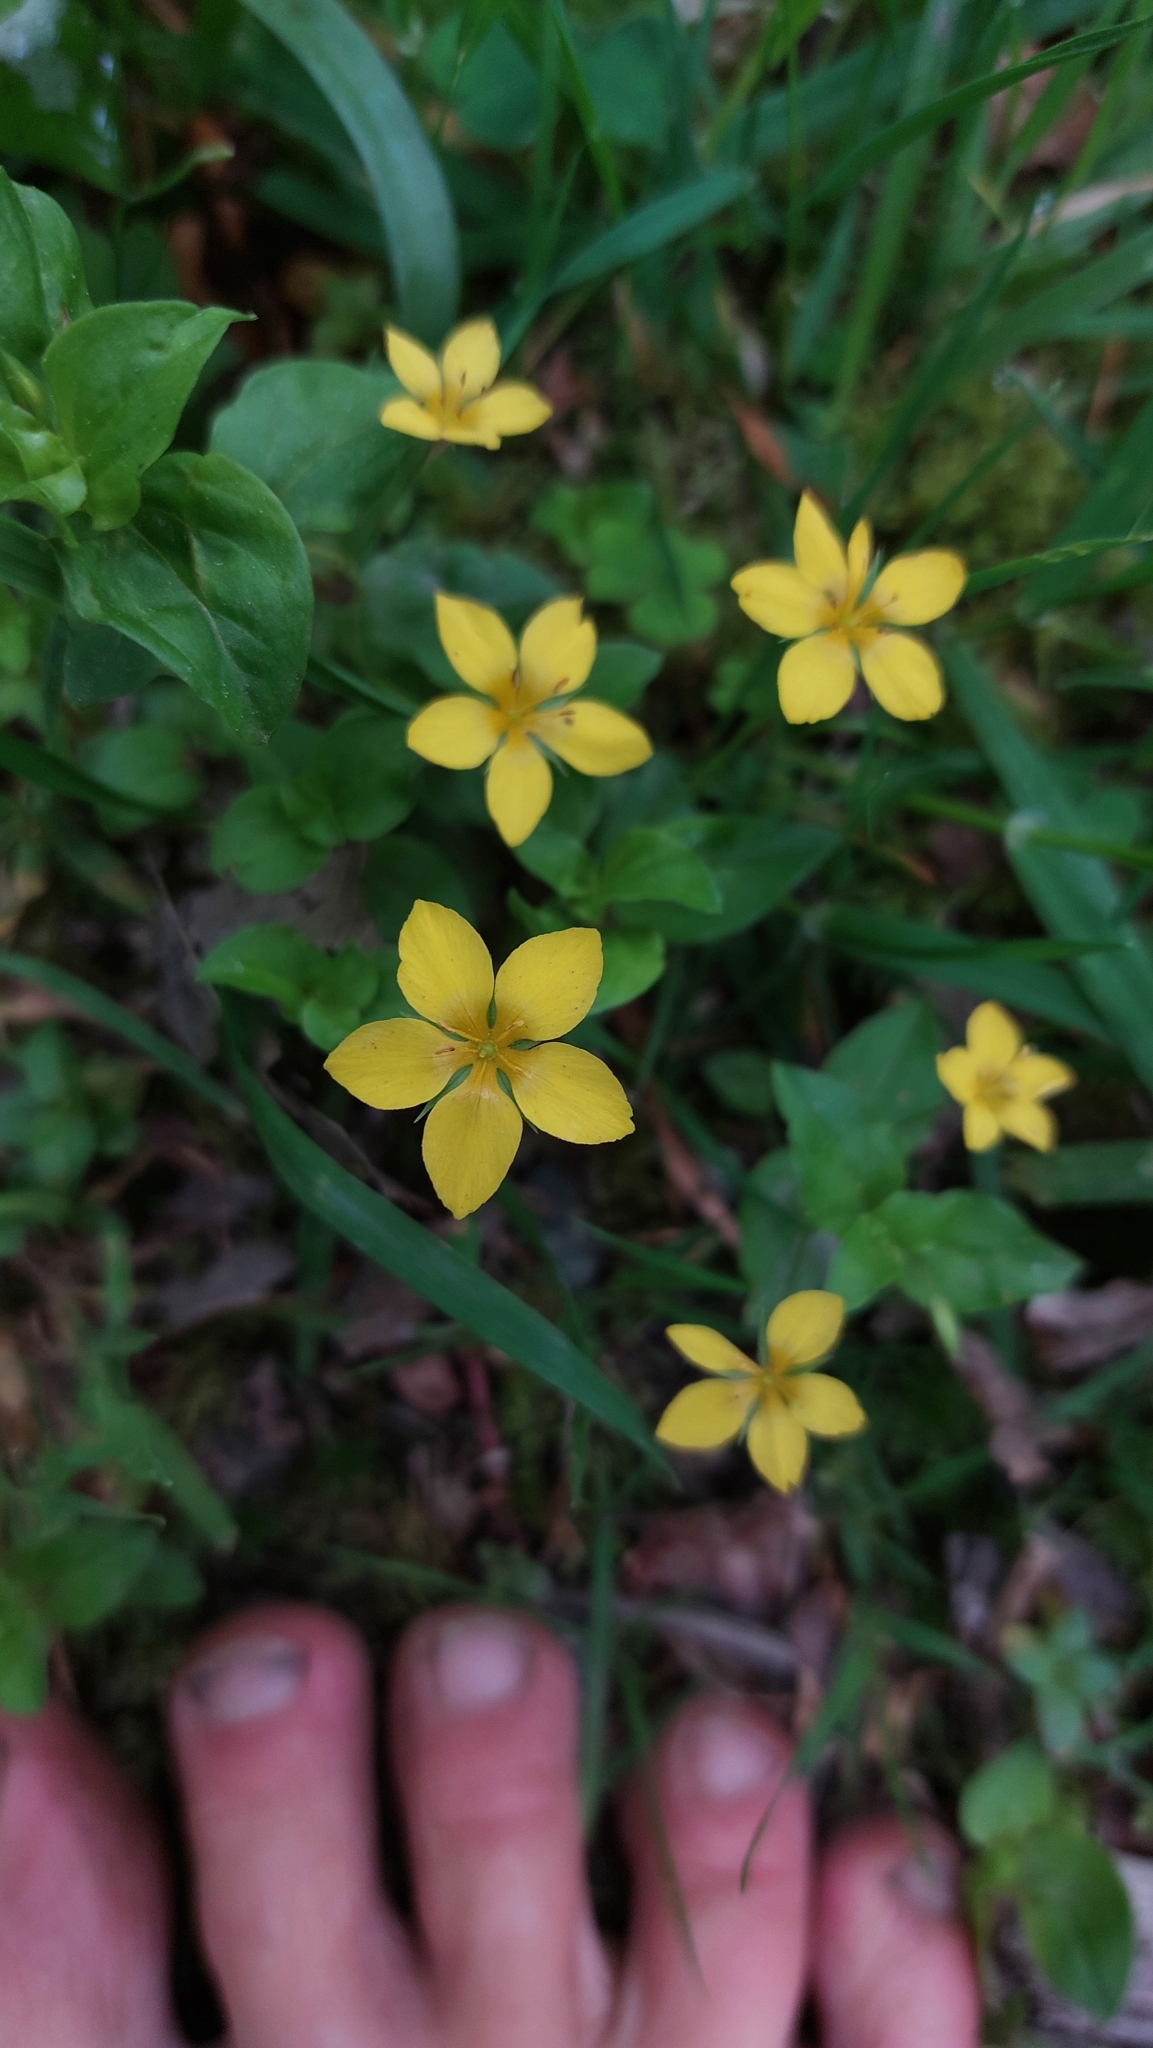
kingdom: Plantae
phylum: Tracheophyta
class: Magnoliopsida
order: Ericales
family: Primulaceae
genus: Lysimachia
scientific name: Lysimachia nemorum
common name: Yellow pimpernel
